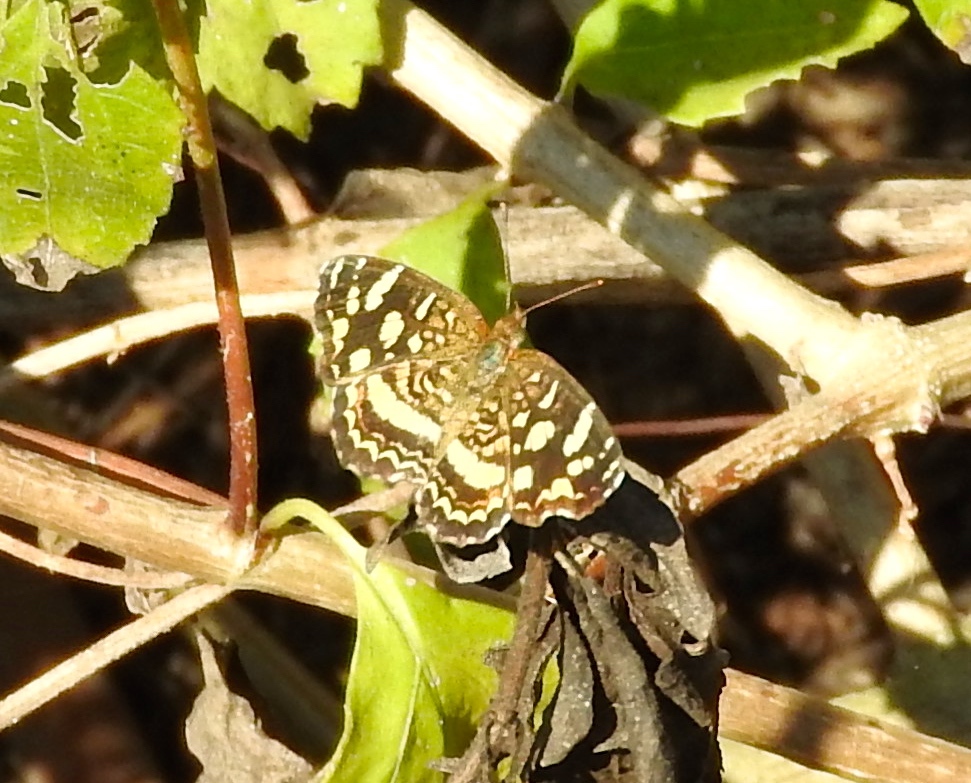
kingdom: Animalia
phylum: Arthropoda
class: Insecta
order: Lepidoptera
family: Nymphalidae
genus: Anthanassa
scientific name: Anthanassa tulcis
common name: Pale-banded crescent
